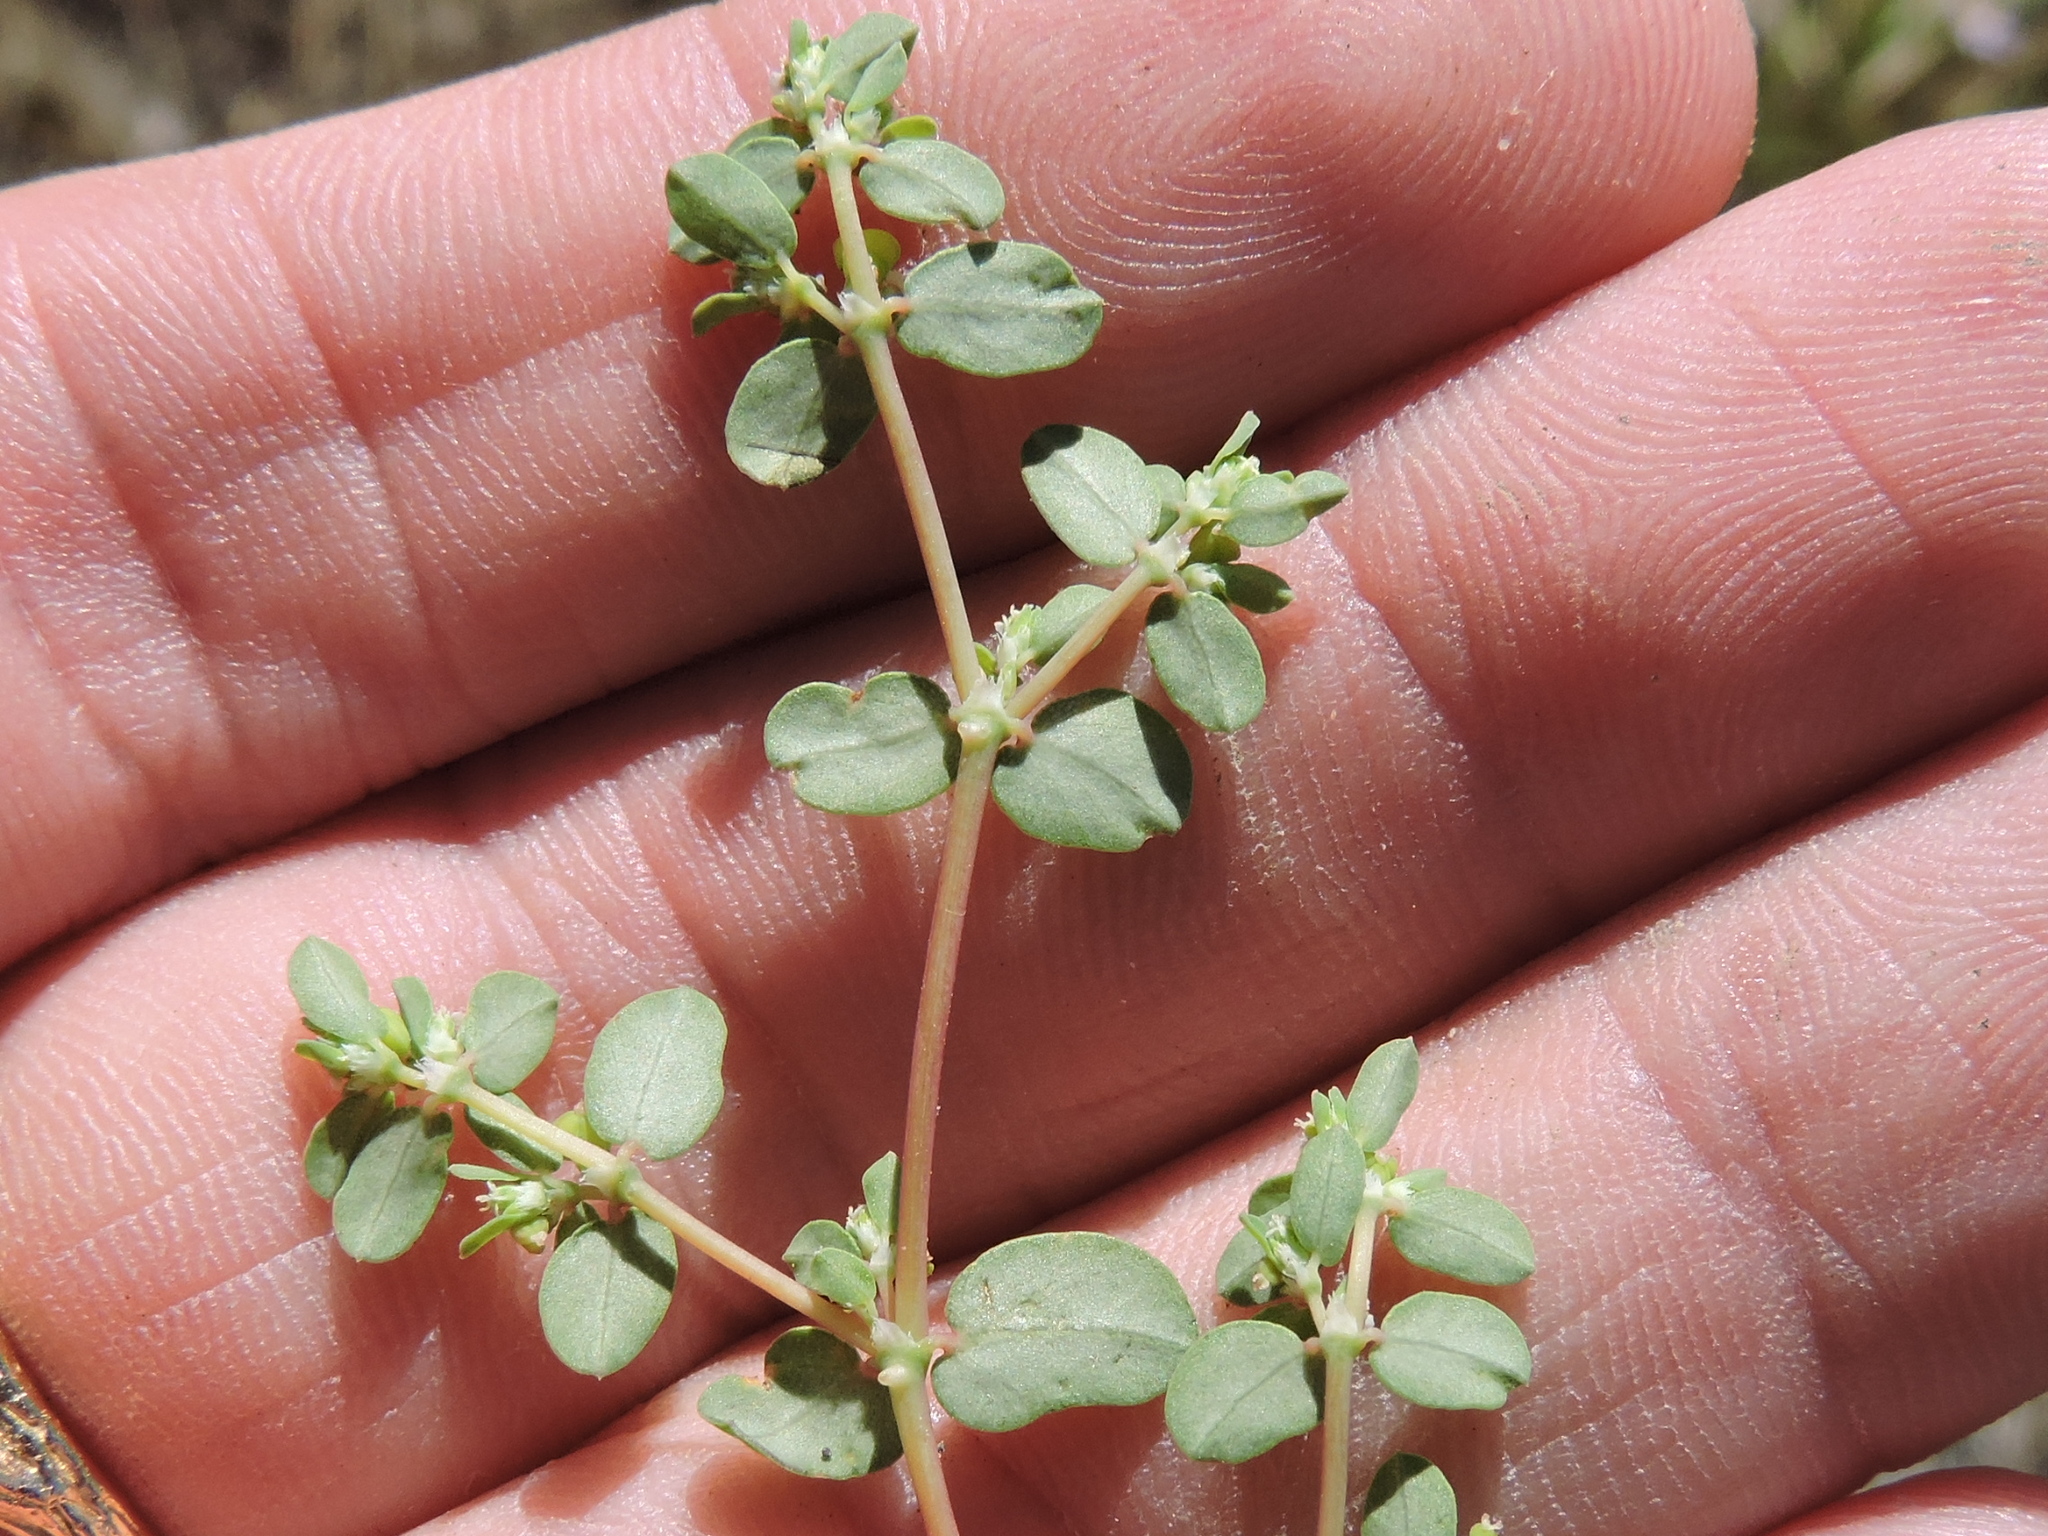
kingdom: Plantae
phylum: Tracheophyta
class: Magnoliopsida
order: Malpighiales
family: Euphorbiaceae
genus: Euphorbia
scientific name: Euphorbia serpens
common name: Matted sandmat
